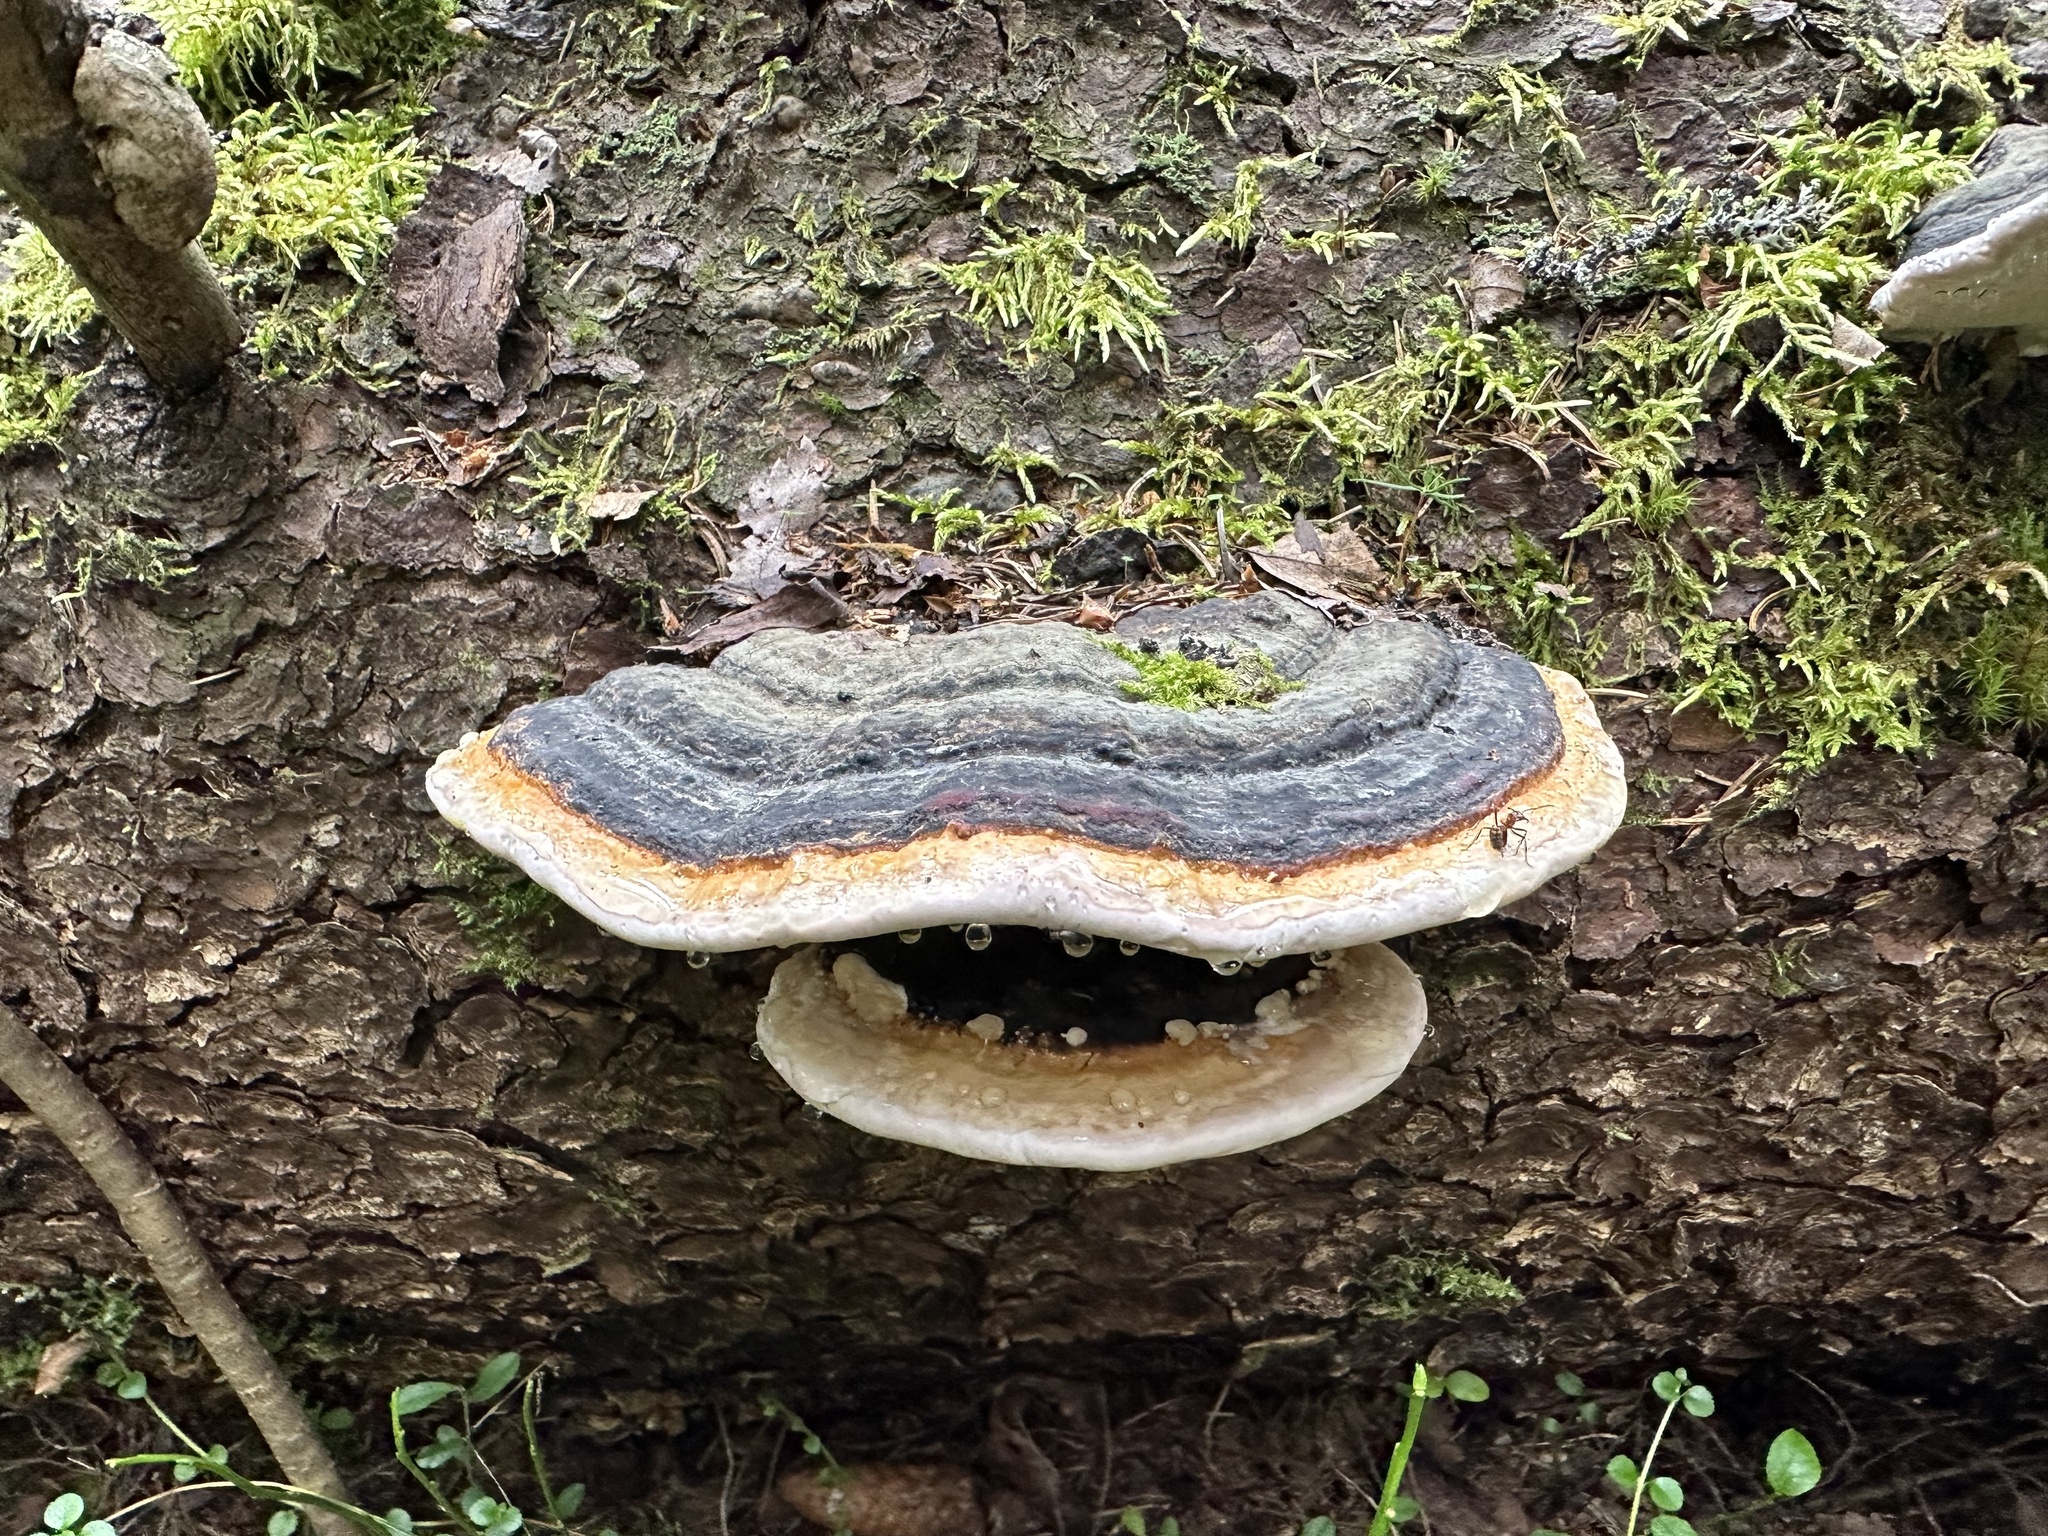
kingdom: Fungi
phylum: Basidiomycota
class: Agaricomycetes
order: Polyporales
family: Fomitopsidaceae
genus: Fomitopsis
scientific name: Fomitopsis pinicola
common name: Red-belted bracket
